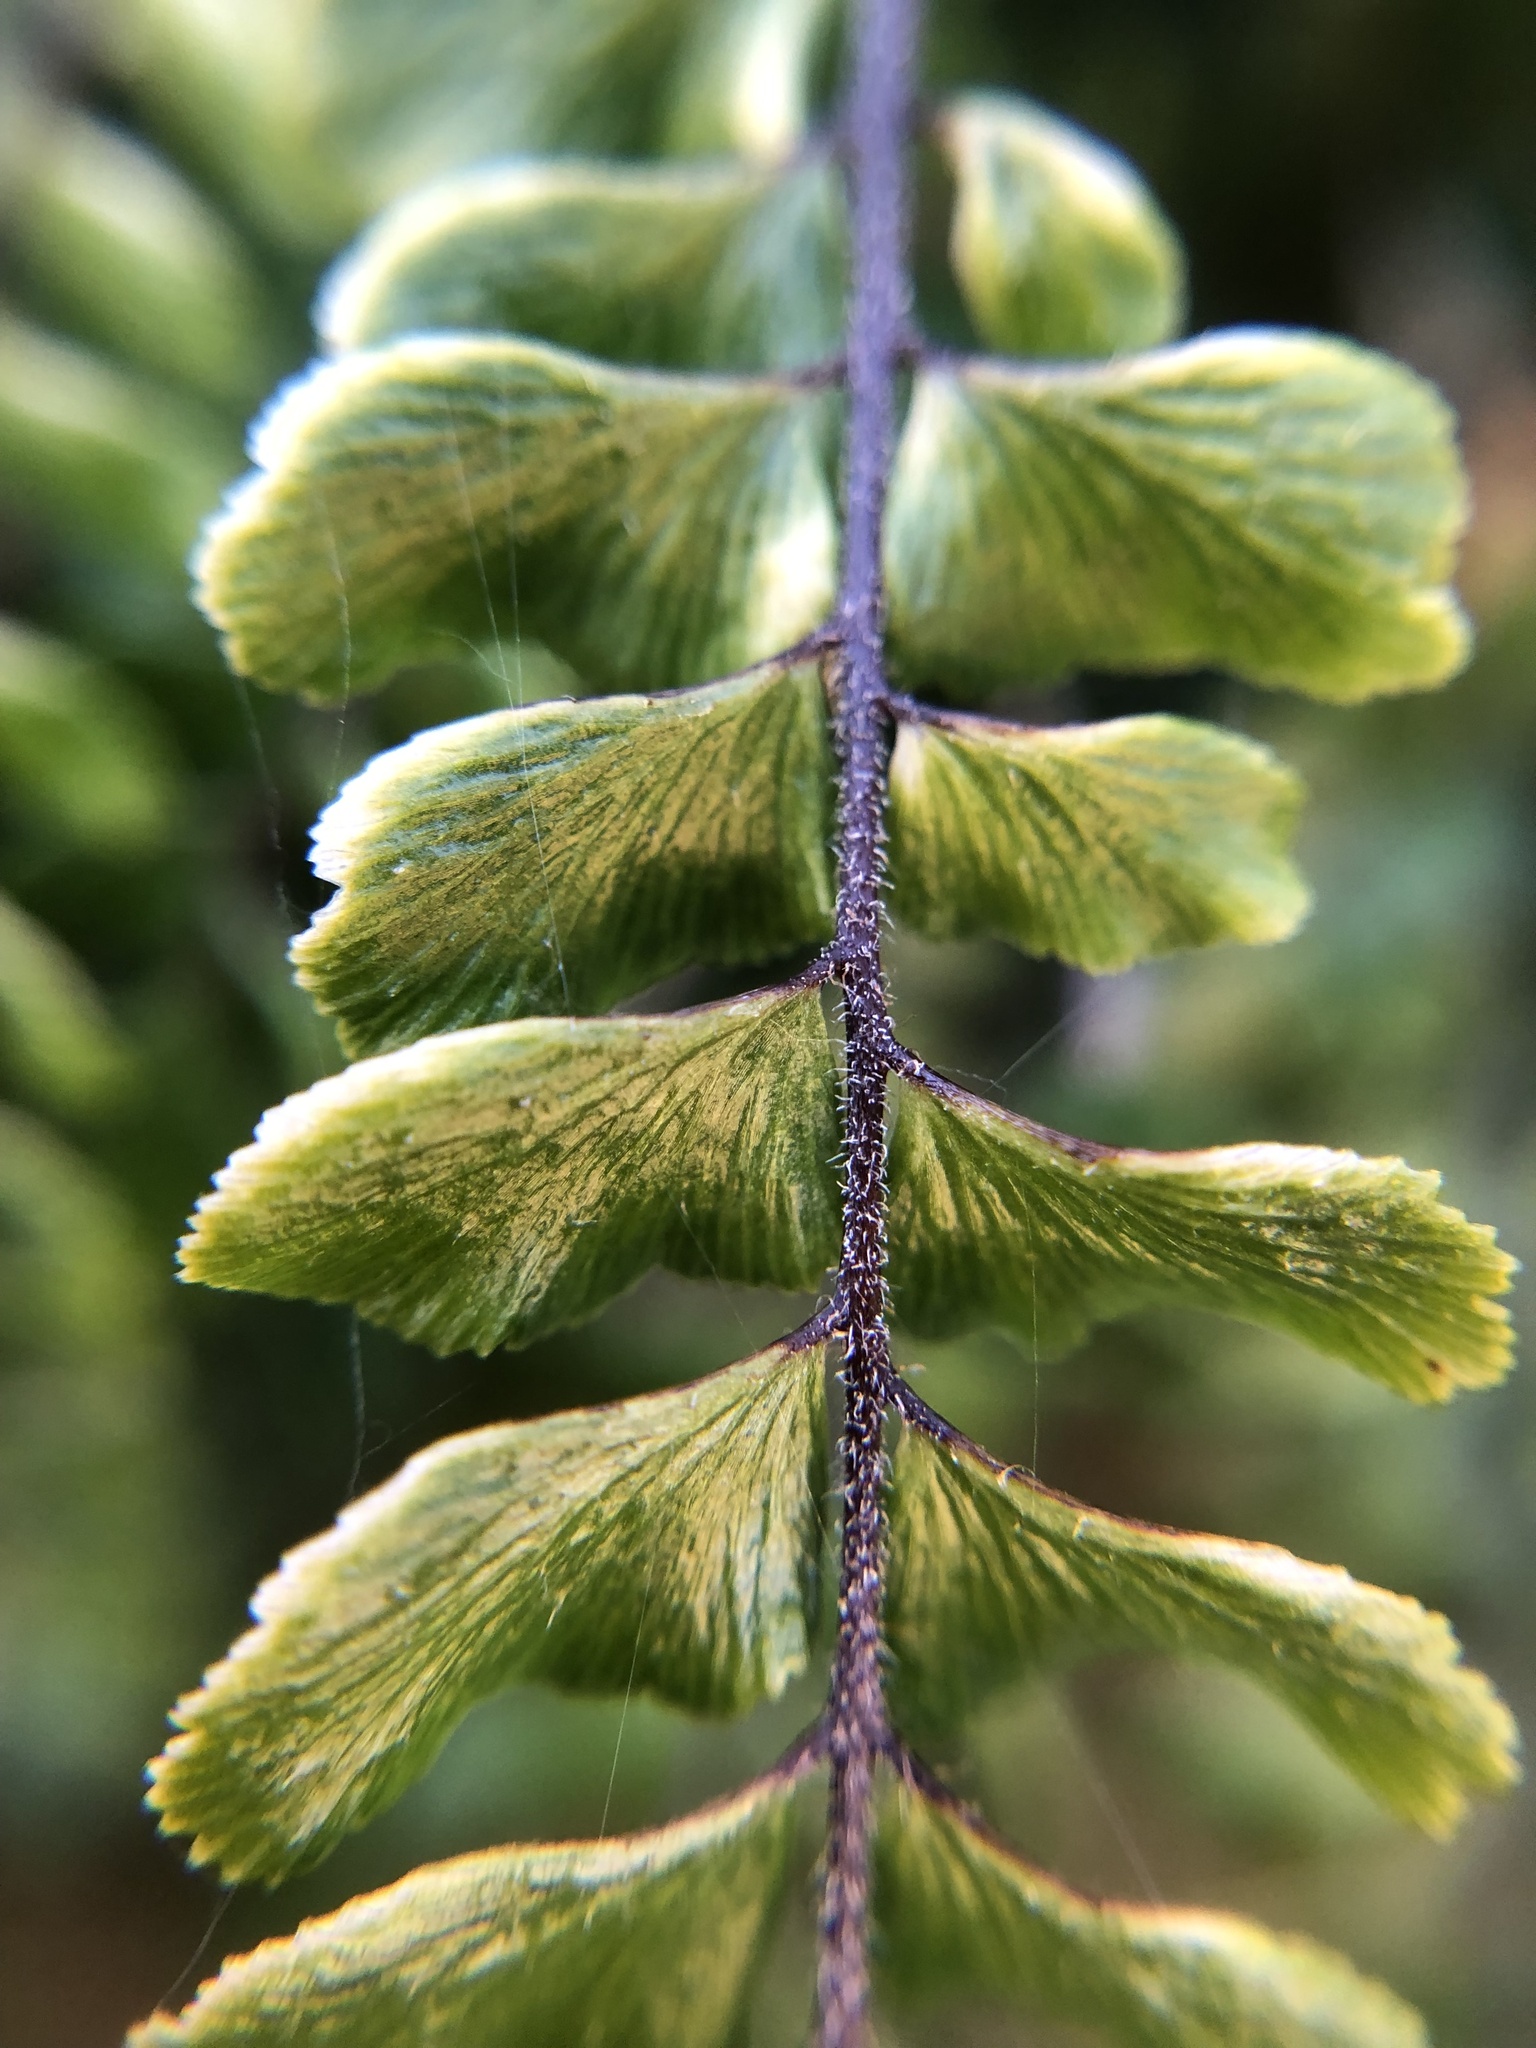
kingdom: Plantae
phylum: Tracheophyta
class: Polypodiopsida
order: Polypodiales
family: Pteridaceae
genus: Adiantum
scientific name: Adiantum hispidulum
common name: Rough maidenhair
